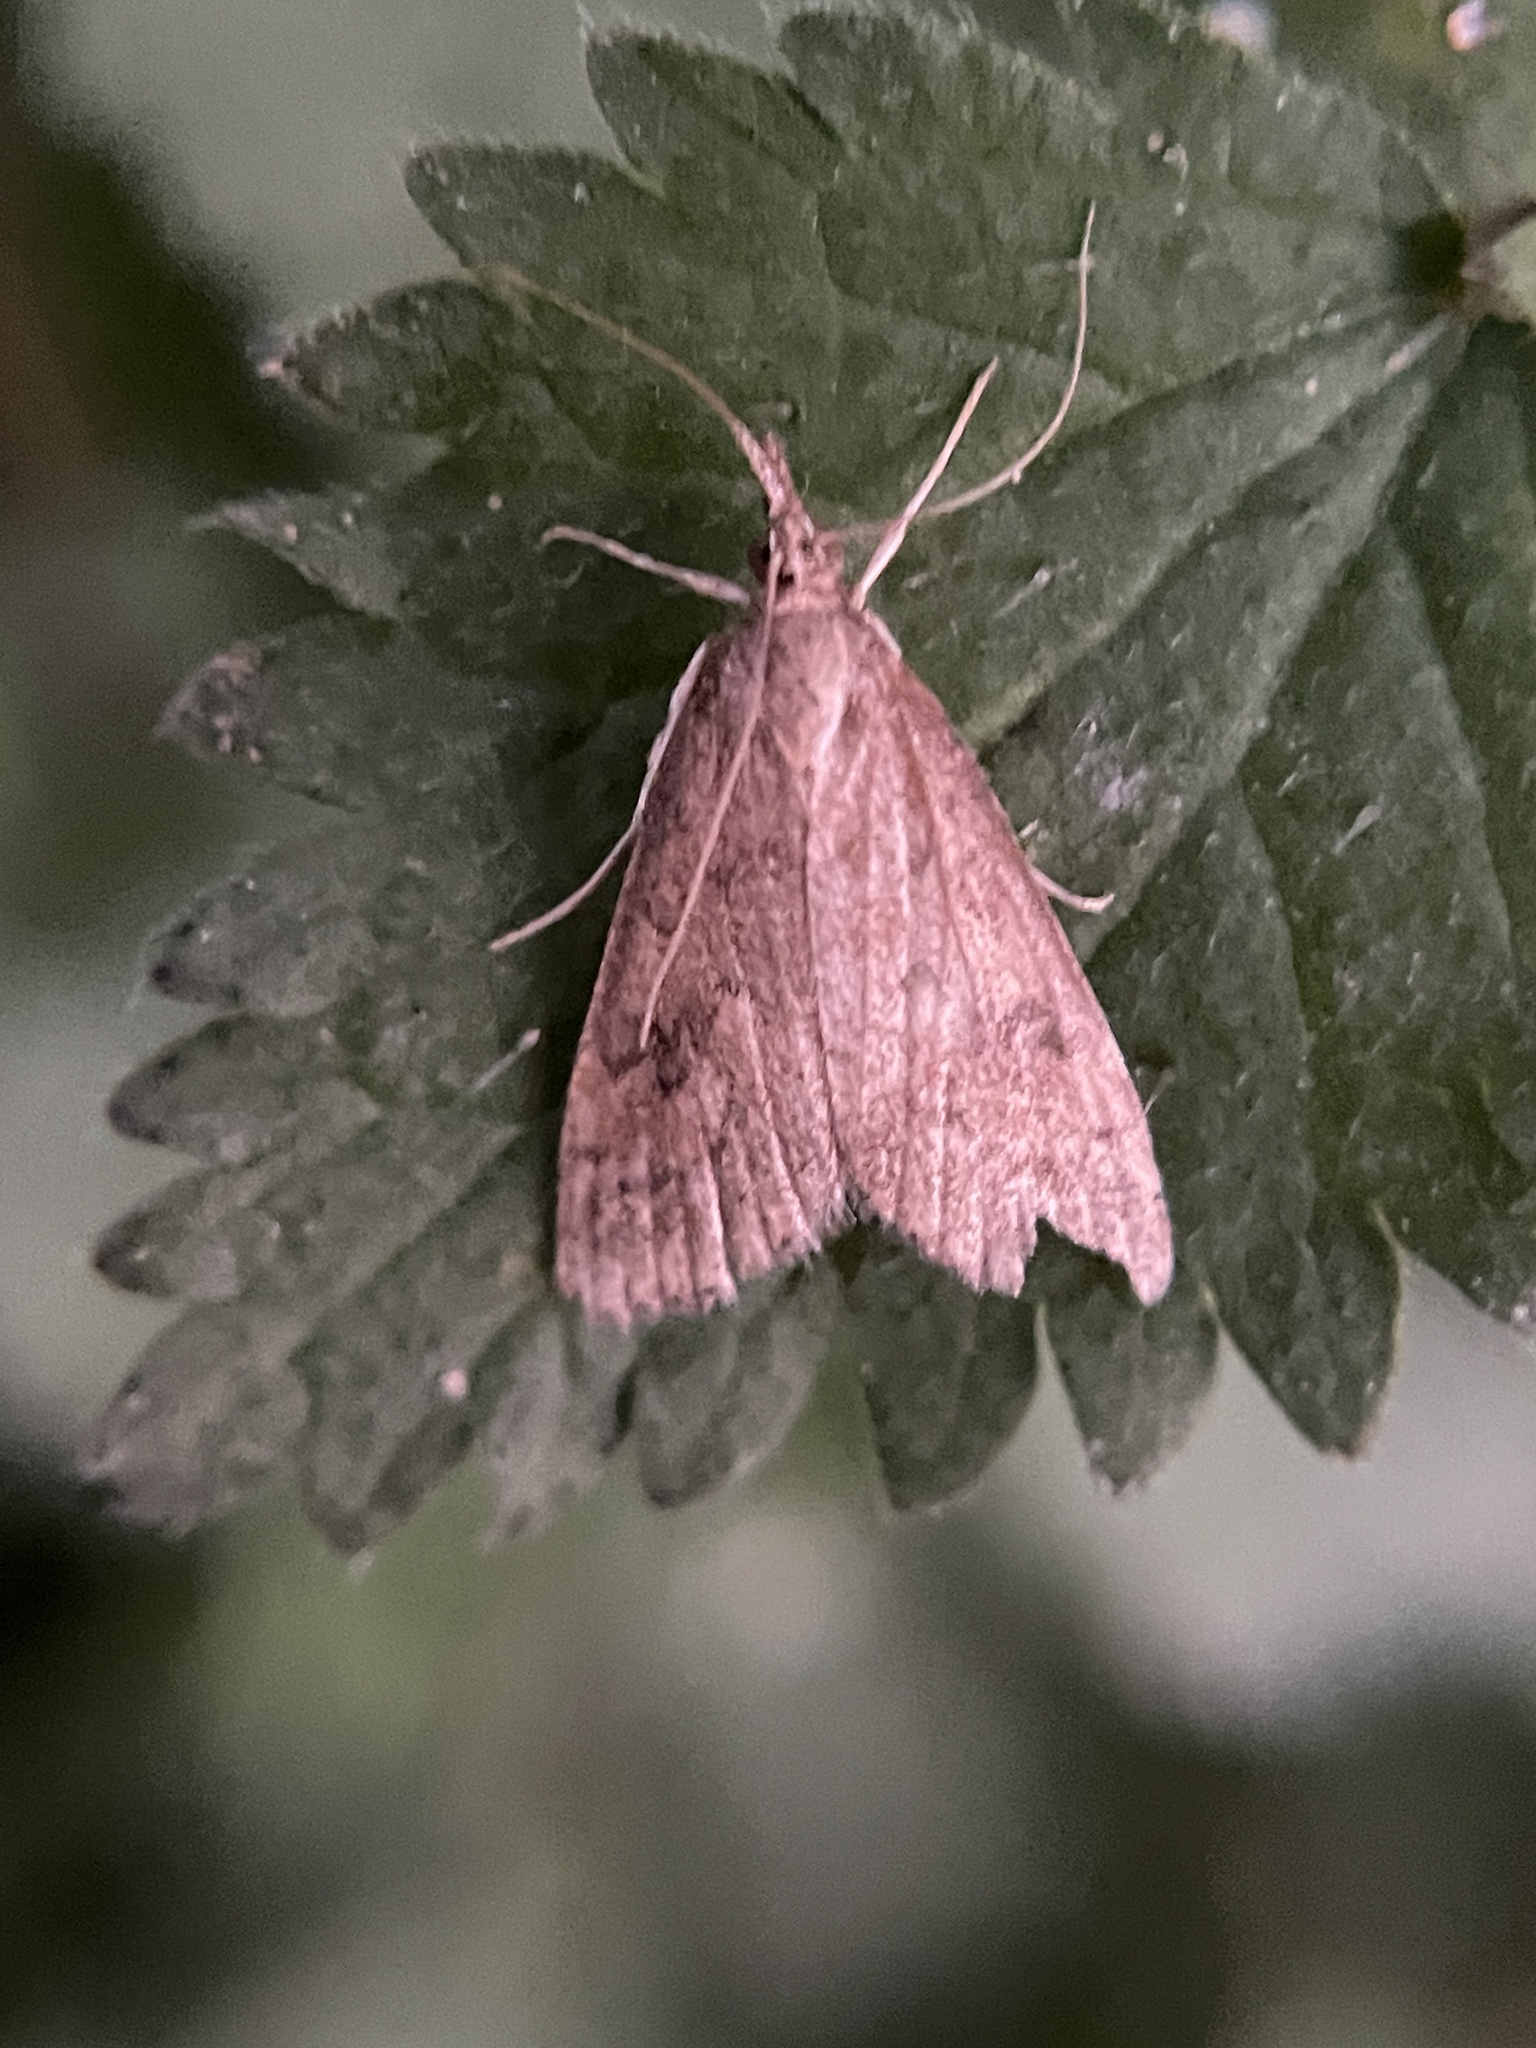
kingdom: Animalia
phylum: Arthropoda
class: Insecta
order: Lepidoptera
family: Crambidae
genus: Udea
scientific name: Udea rubigalis
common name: Celery leaftier moth
